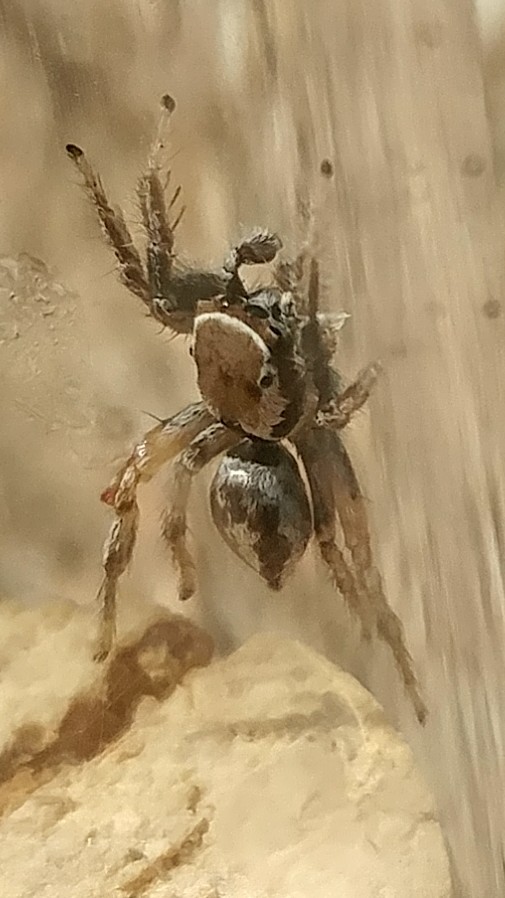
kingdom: Animalia
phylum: Arthropoda
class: Arachnida
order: Araneae
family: Salticidae
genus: Habronattus
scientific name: Habronattus formosus
